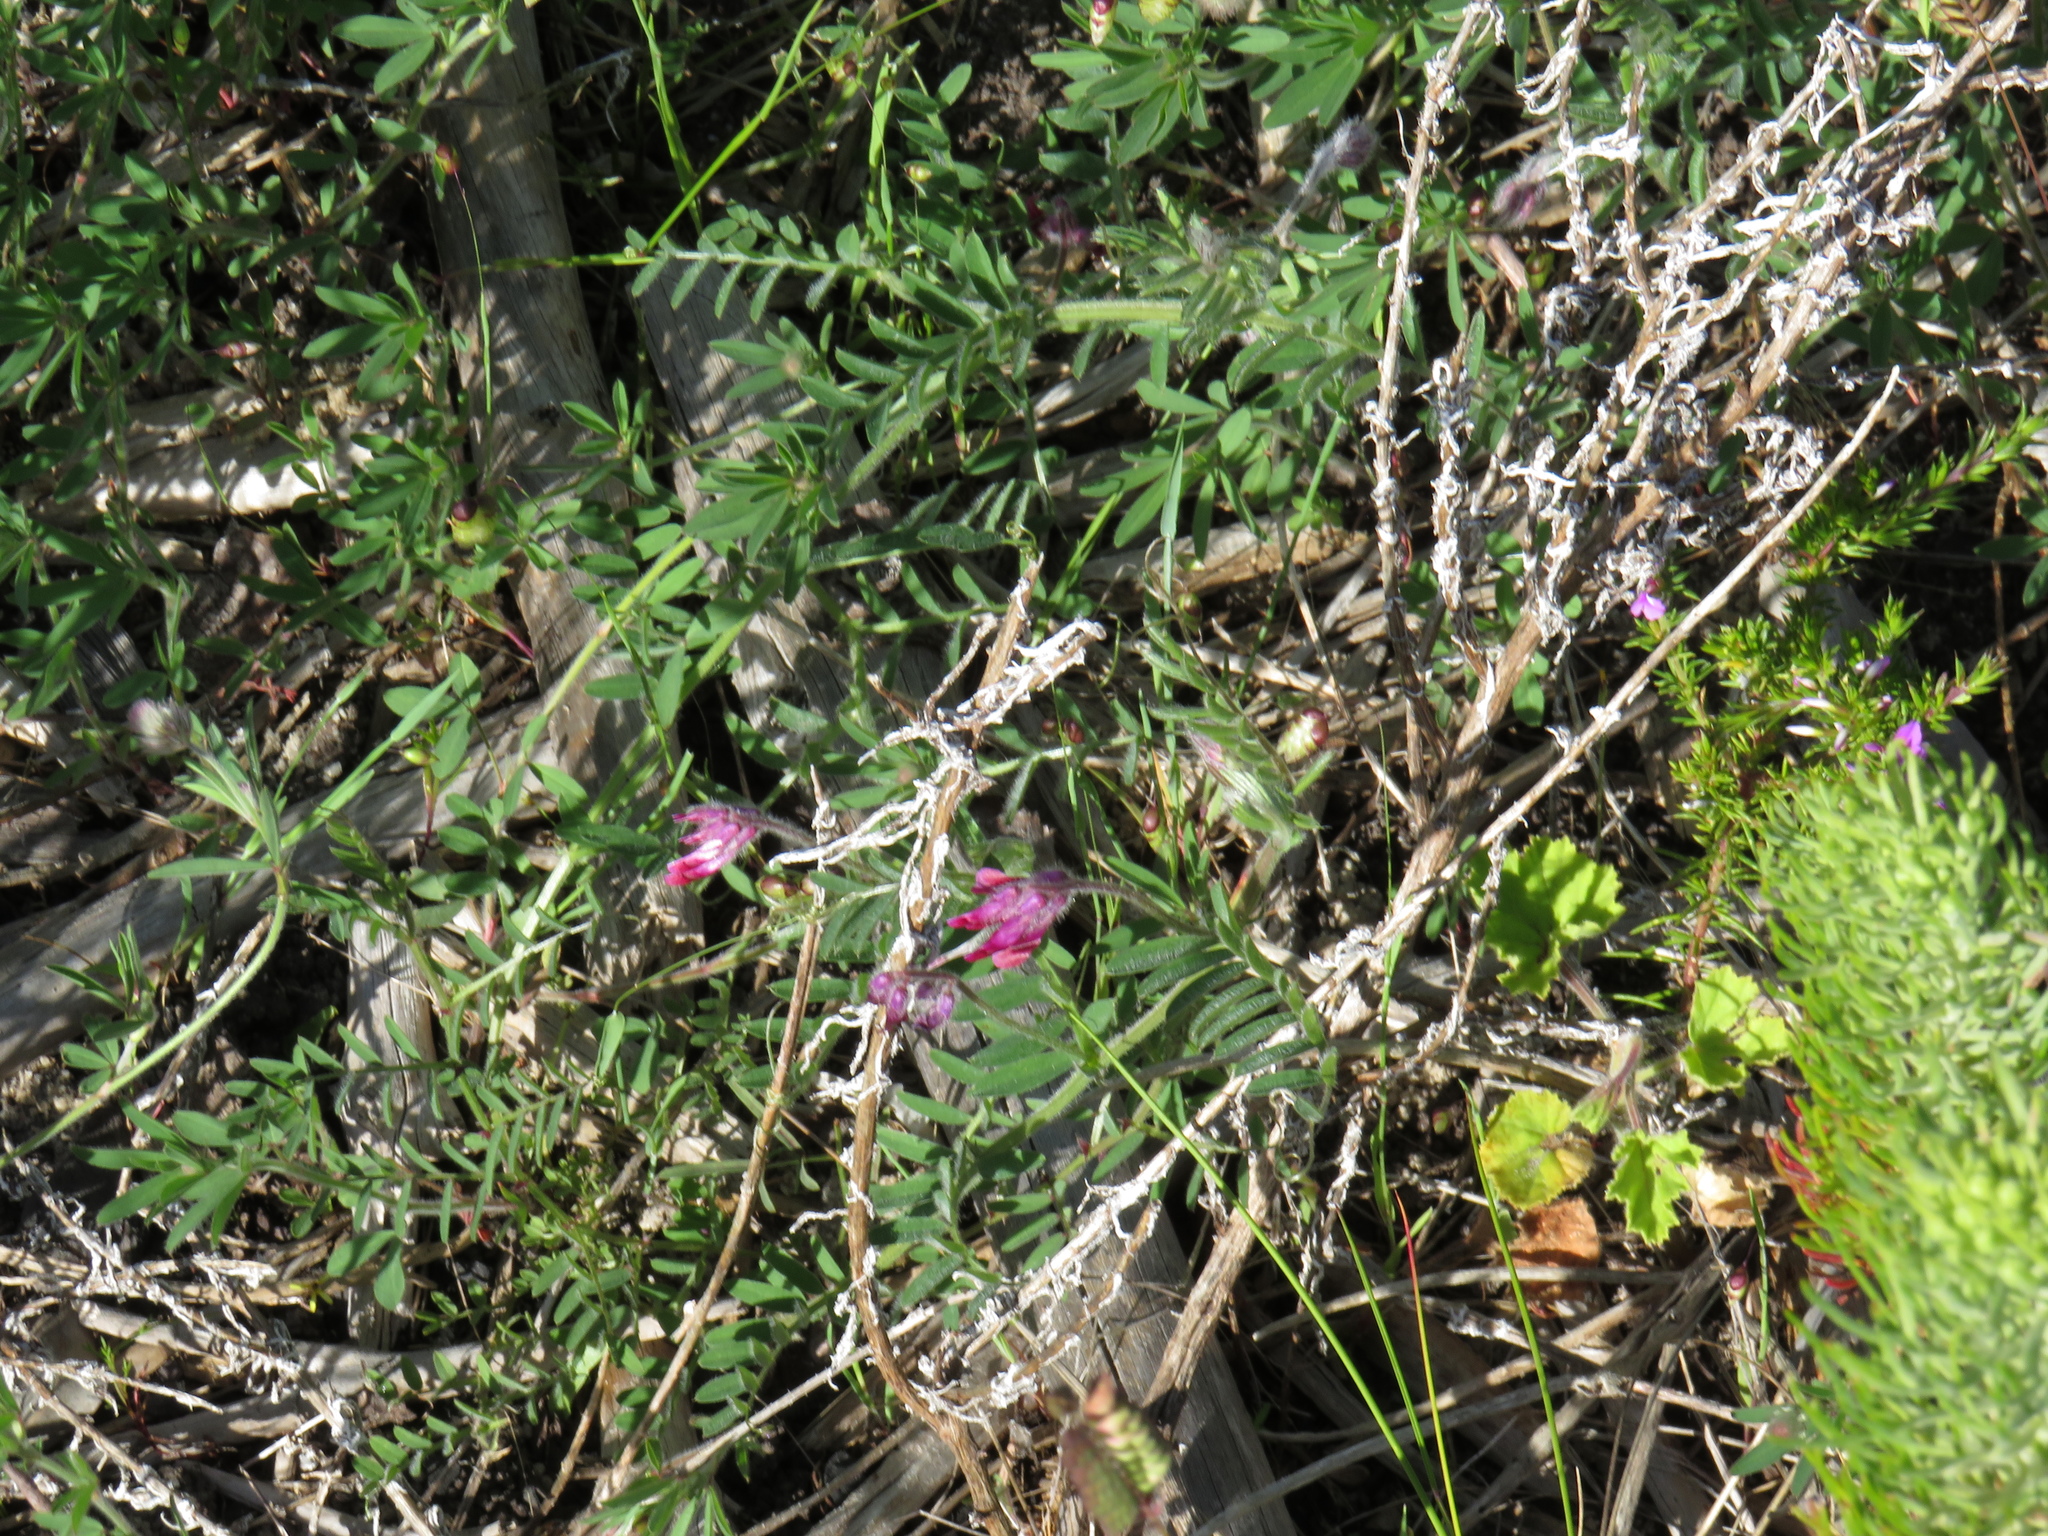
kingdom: Plantae
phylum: Tracheophyta
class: Magnoliopsida
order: Fabales
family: Fabaceae
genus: Vicia
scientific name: Vicia benghalensis
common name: Purple vetch
